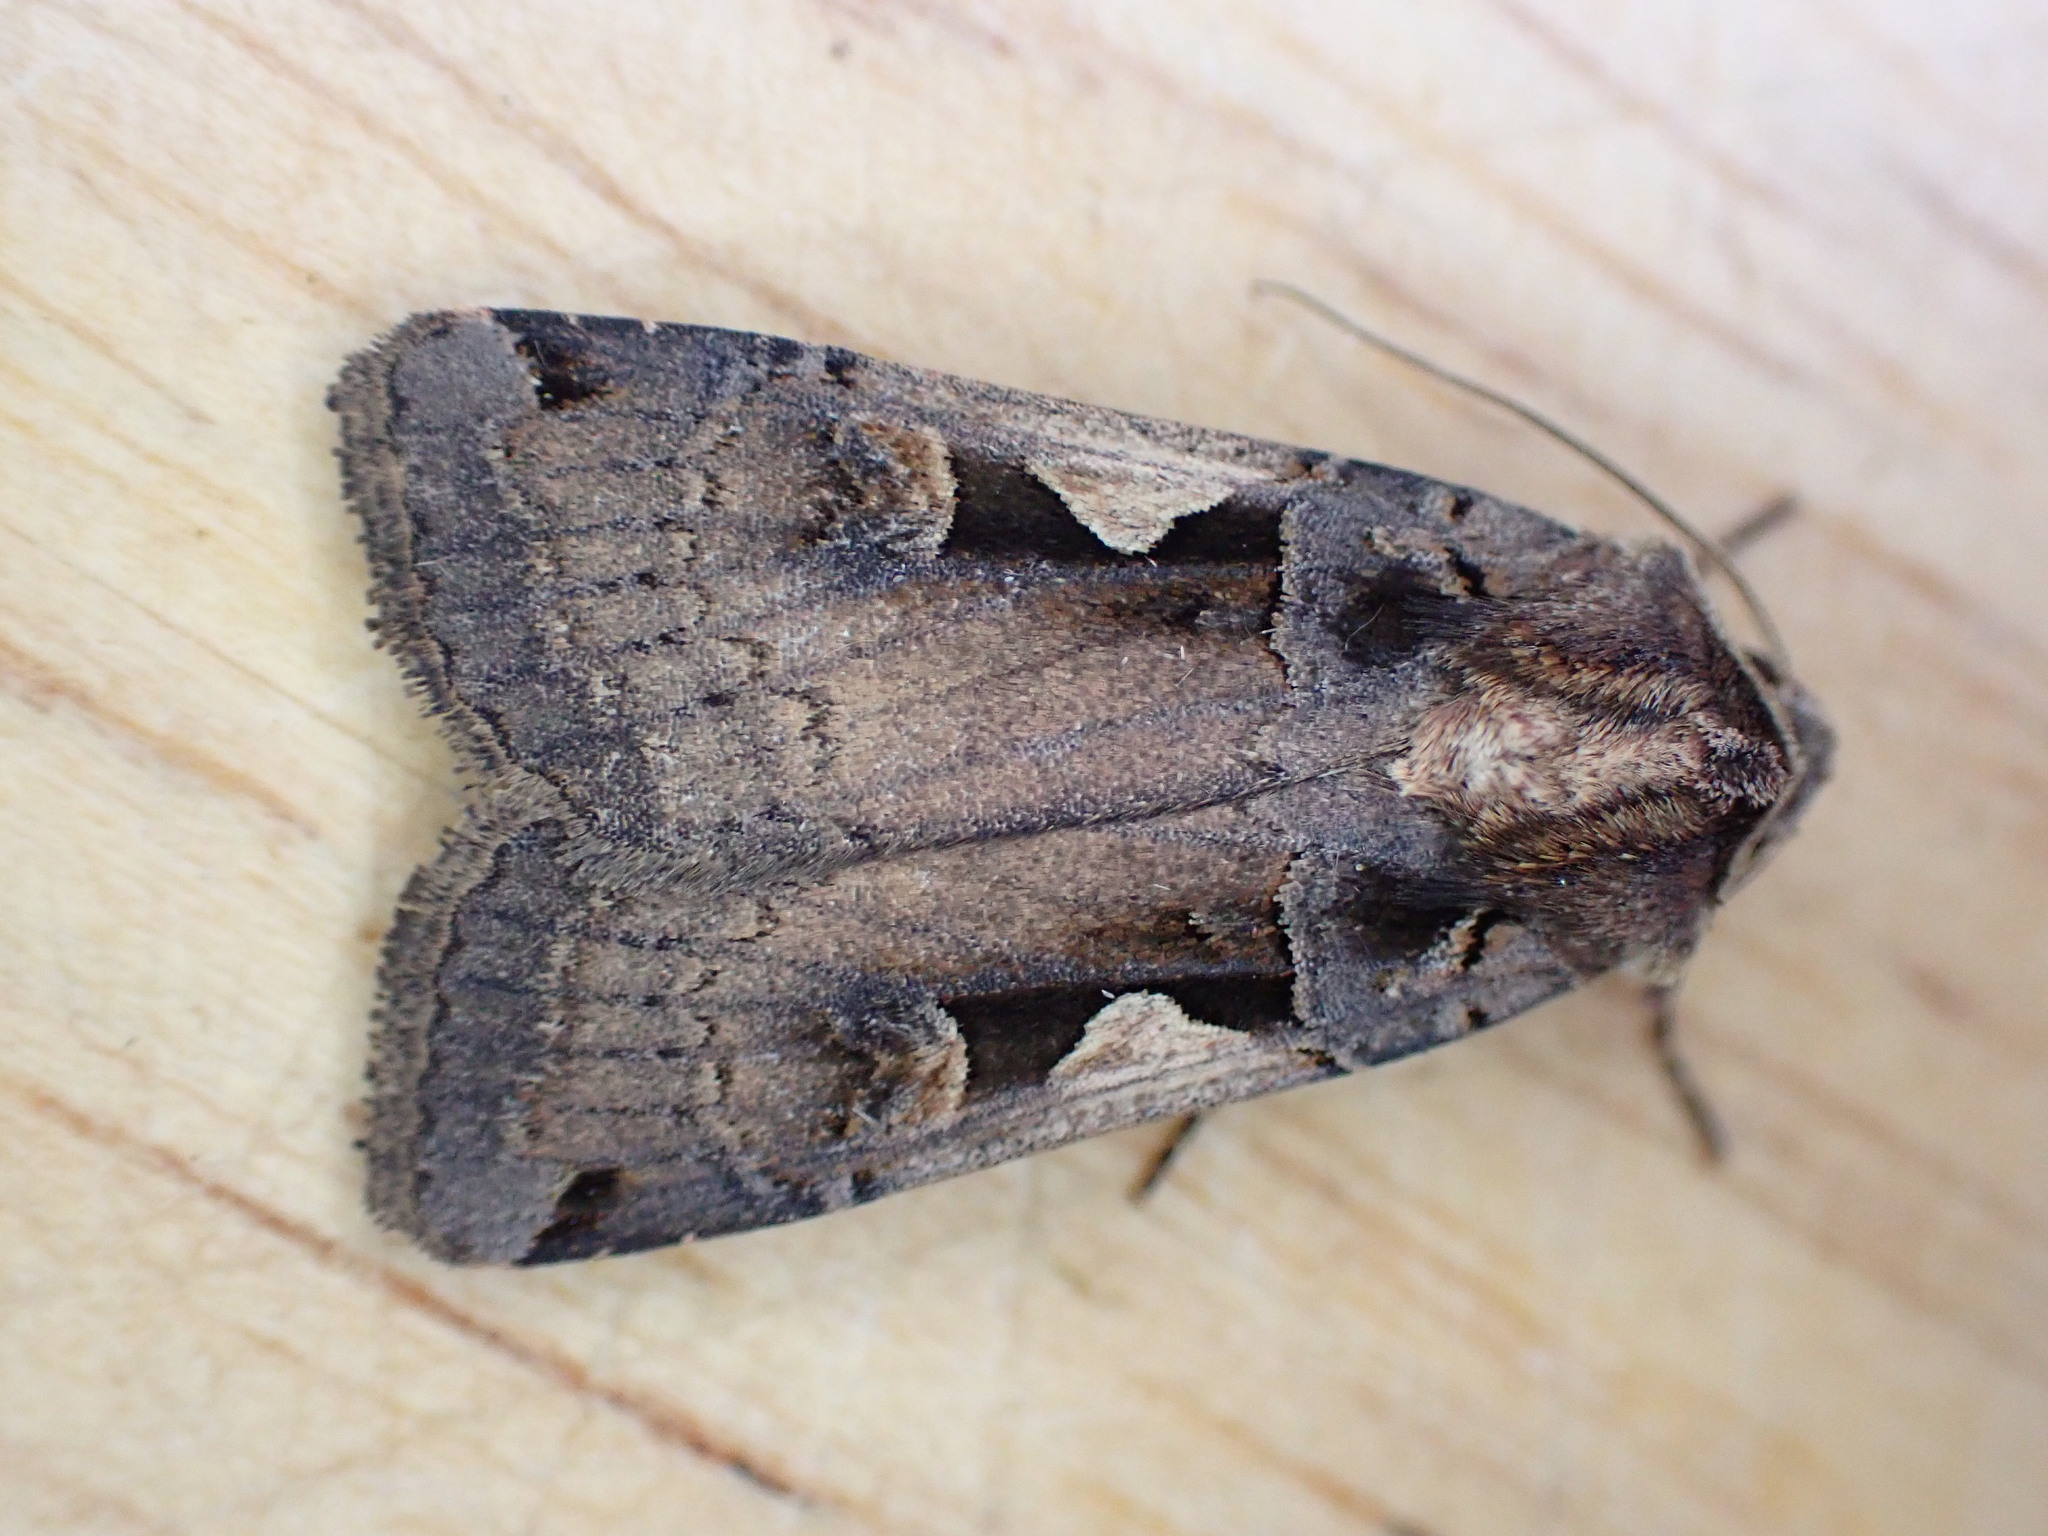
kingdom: Animalia
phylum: Arthropoda
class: Insecta
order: Lepidoptera
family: Noctuidae
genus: Xestia
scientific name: Xestia c-nigrum
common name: Setaceous hebrew character
